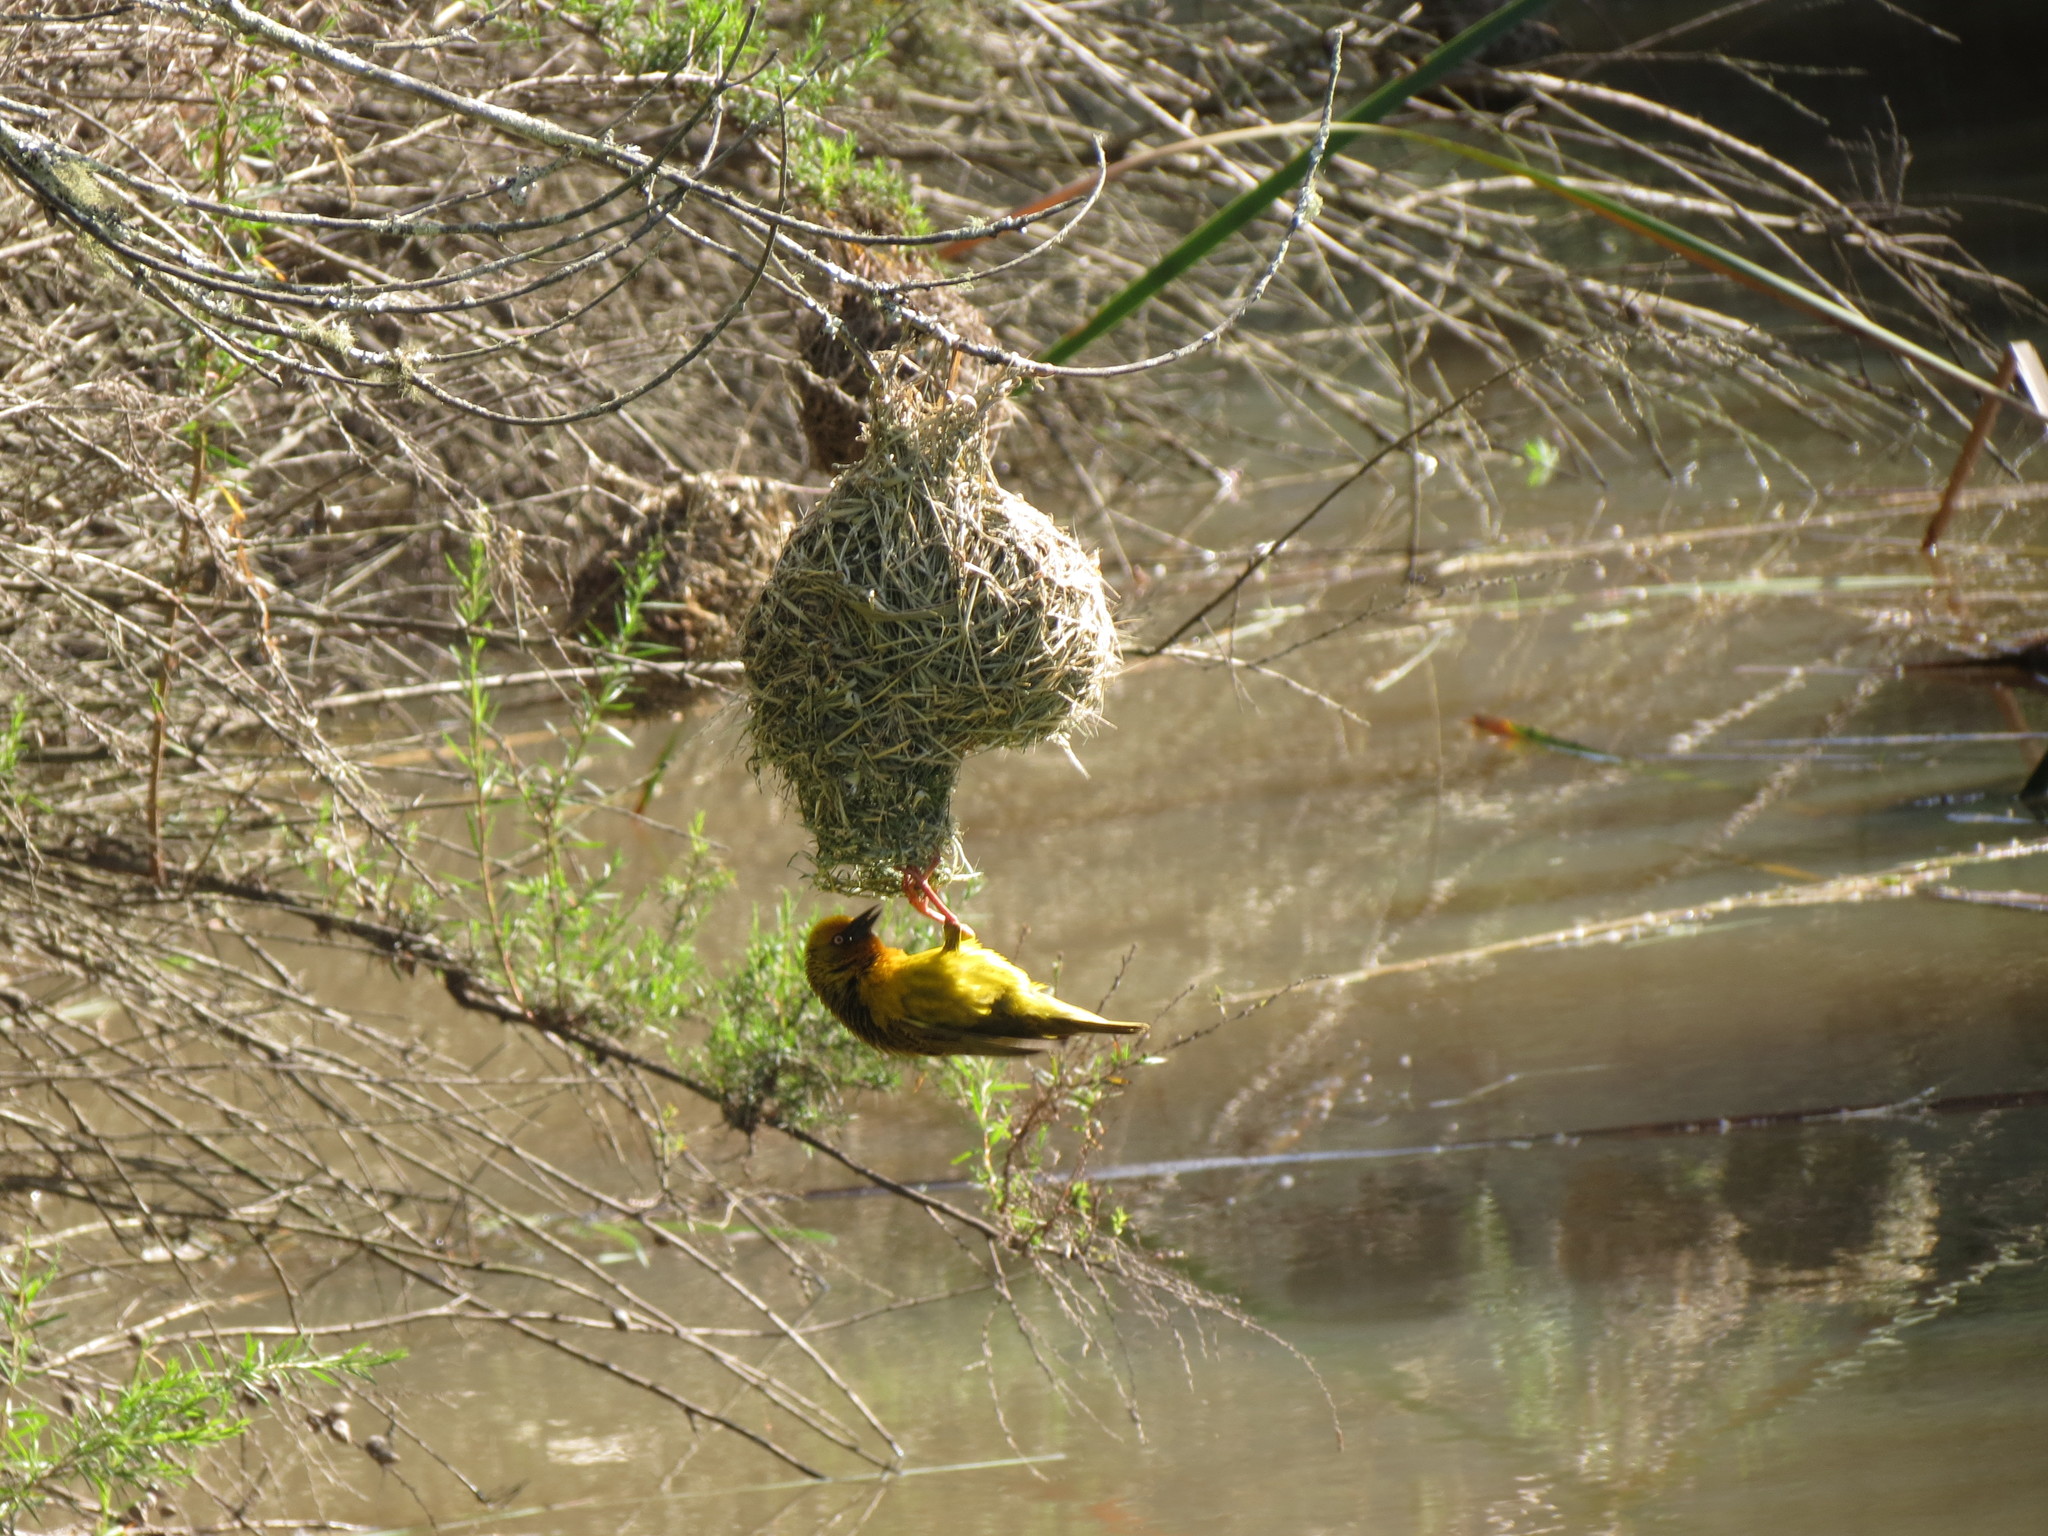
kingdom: Animalia
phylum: Chordata
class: Aves
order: Passeriformes
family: Ploceidae
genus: Ploceus
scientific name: Ploceus capensis
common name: Cape weaver
